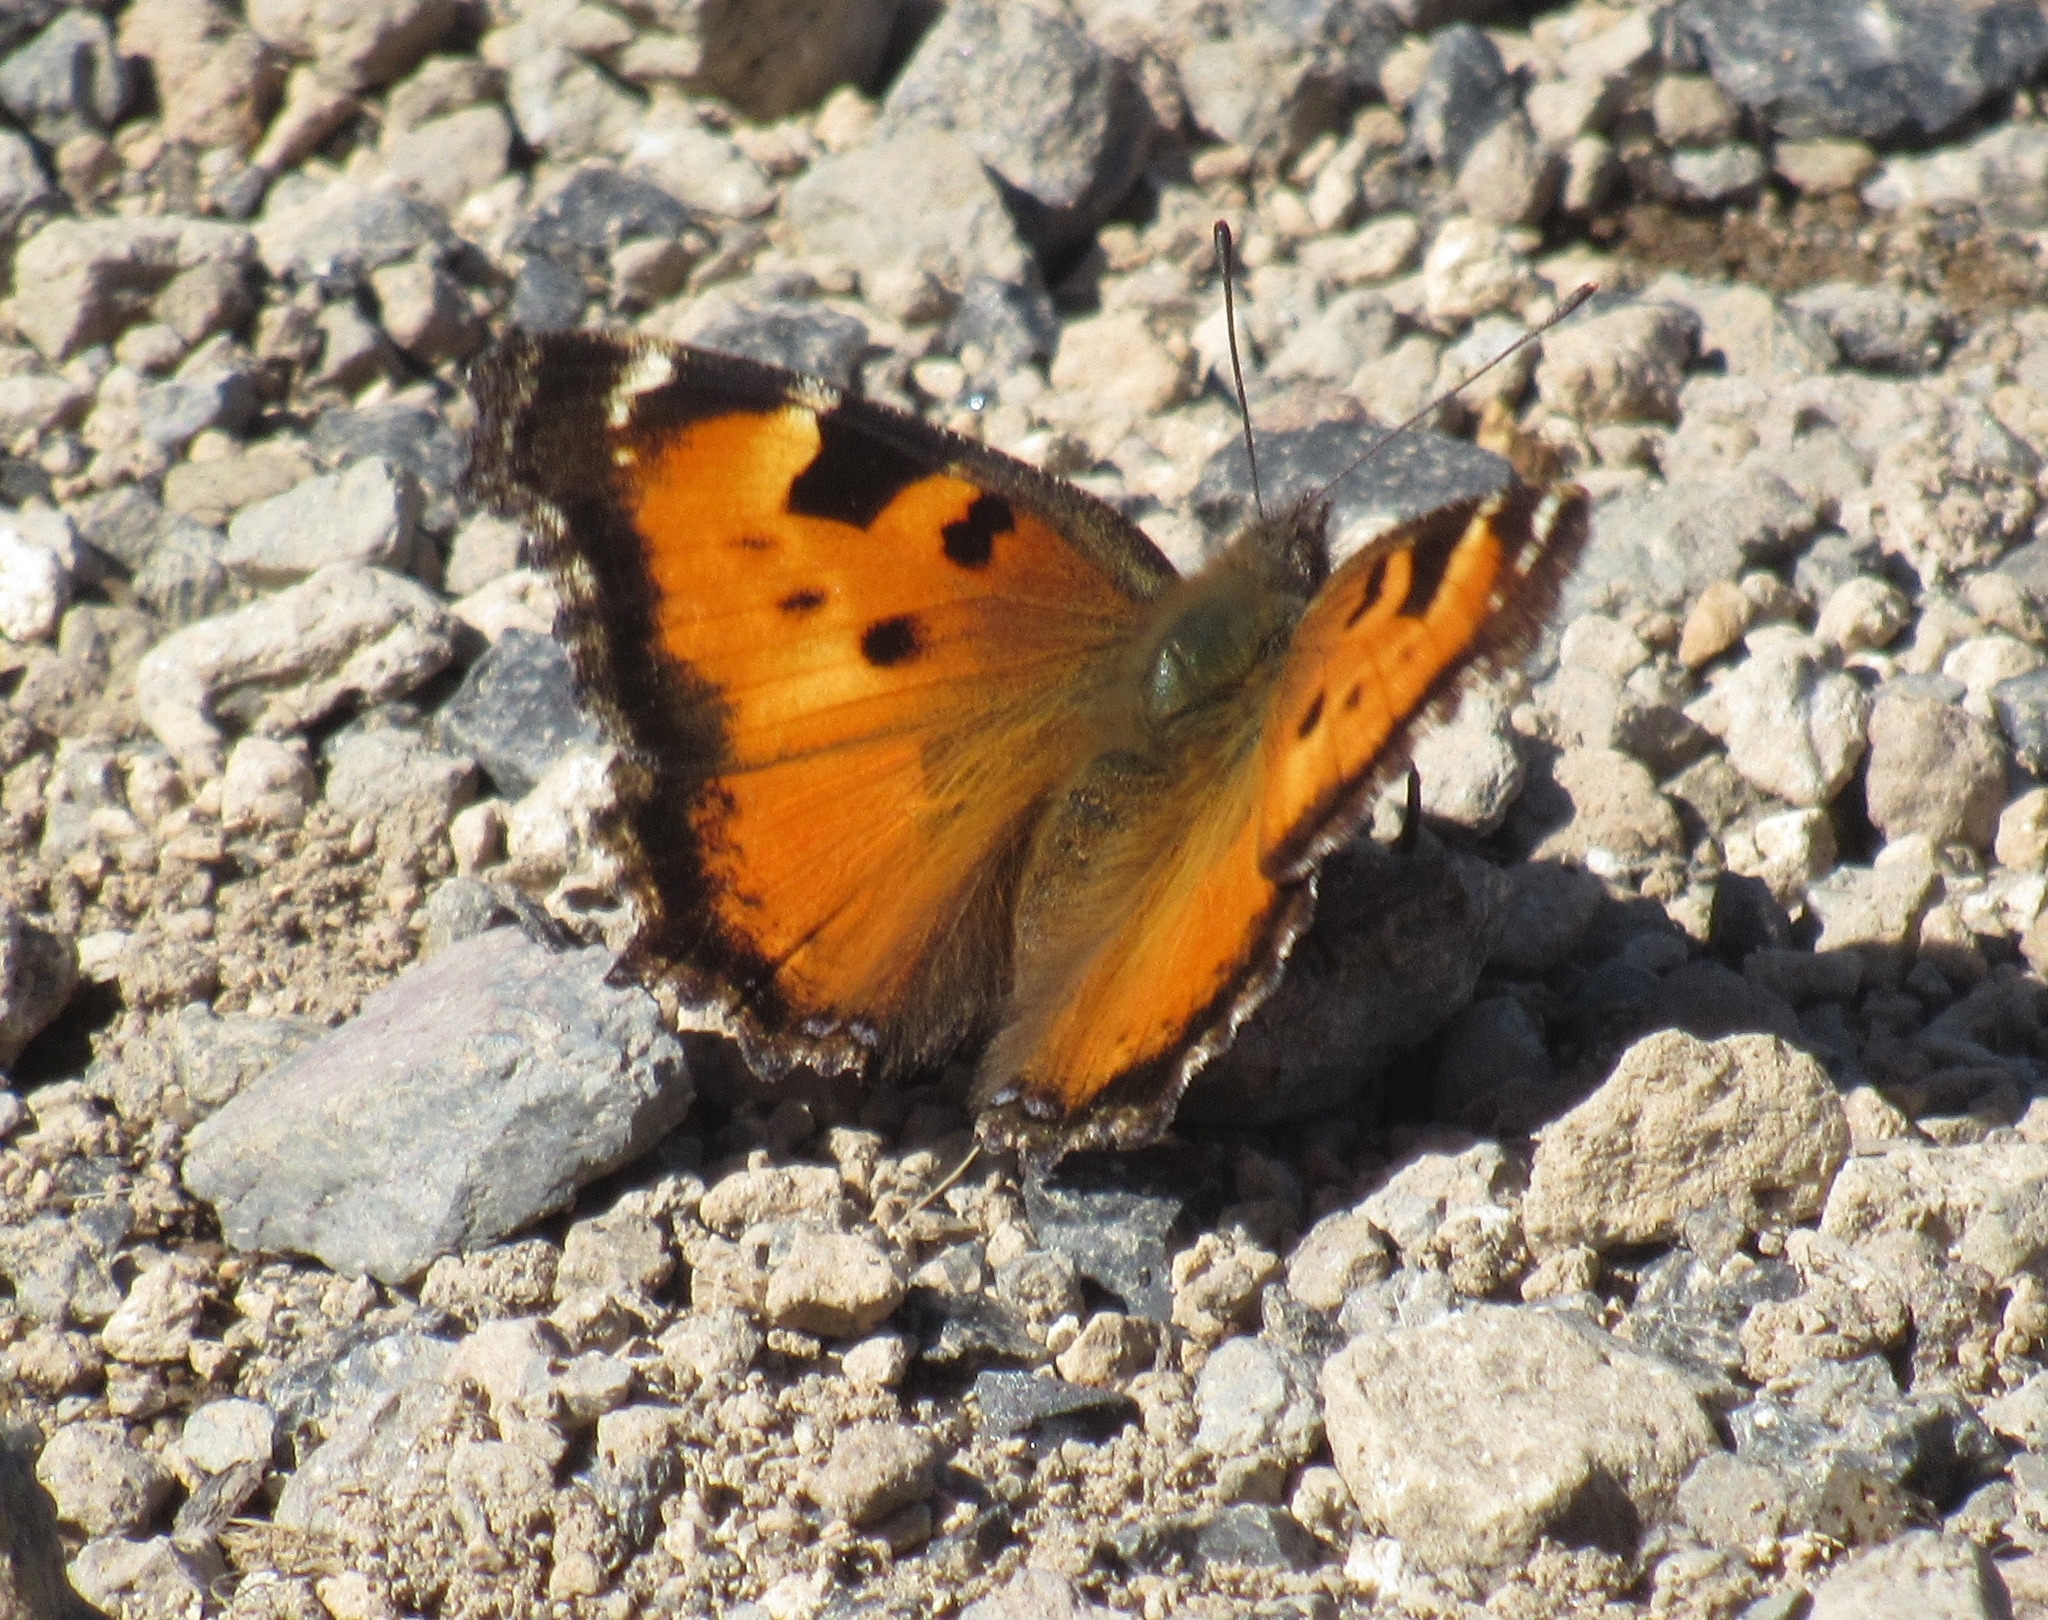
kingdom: Animalia
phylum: Arthropoda
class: Insecta
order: Lepidoptera
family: Nymphalidae
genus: Nymphalis
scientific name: Nymphalis californica
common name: California tortoiseshell
